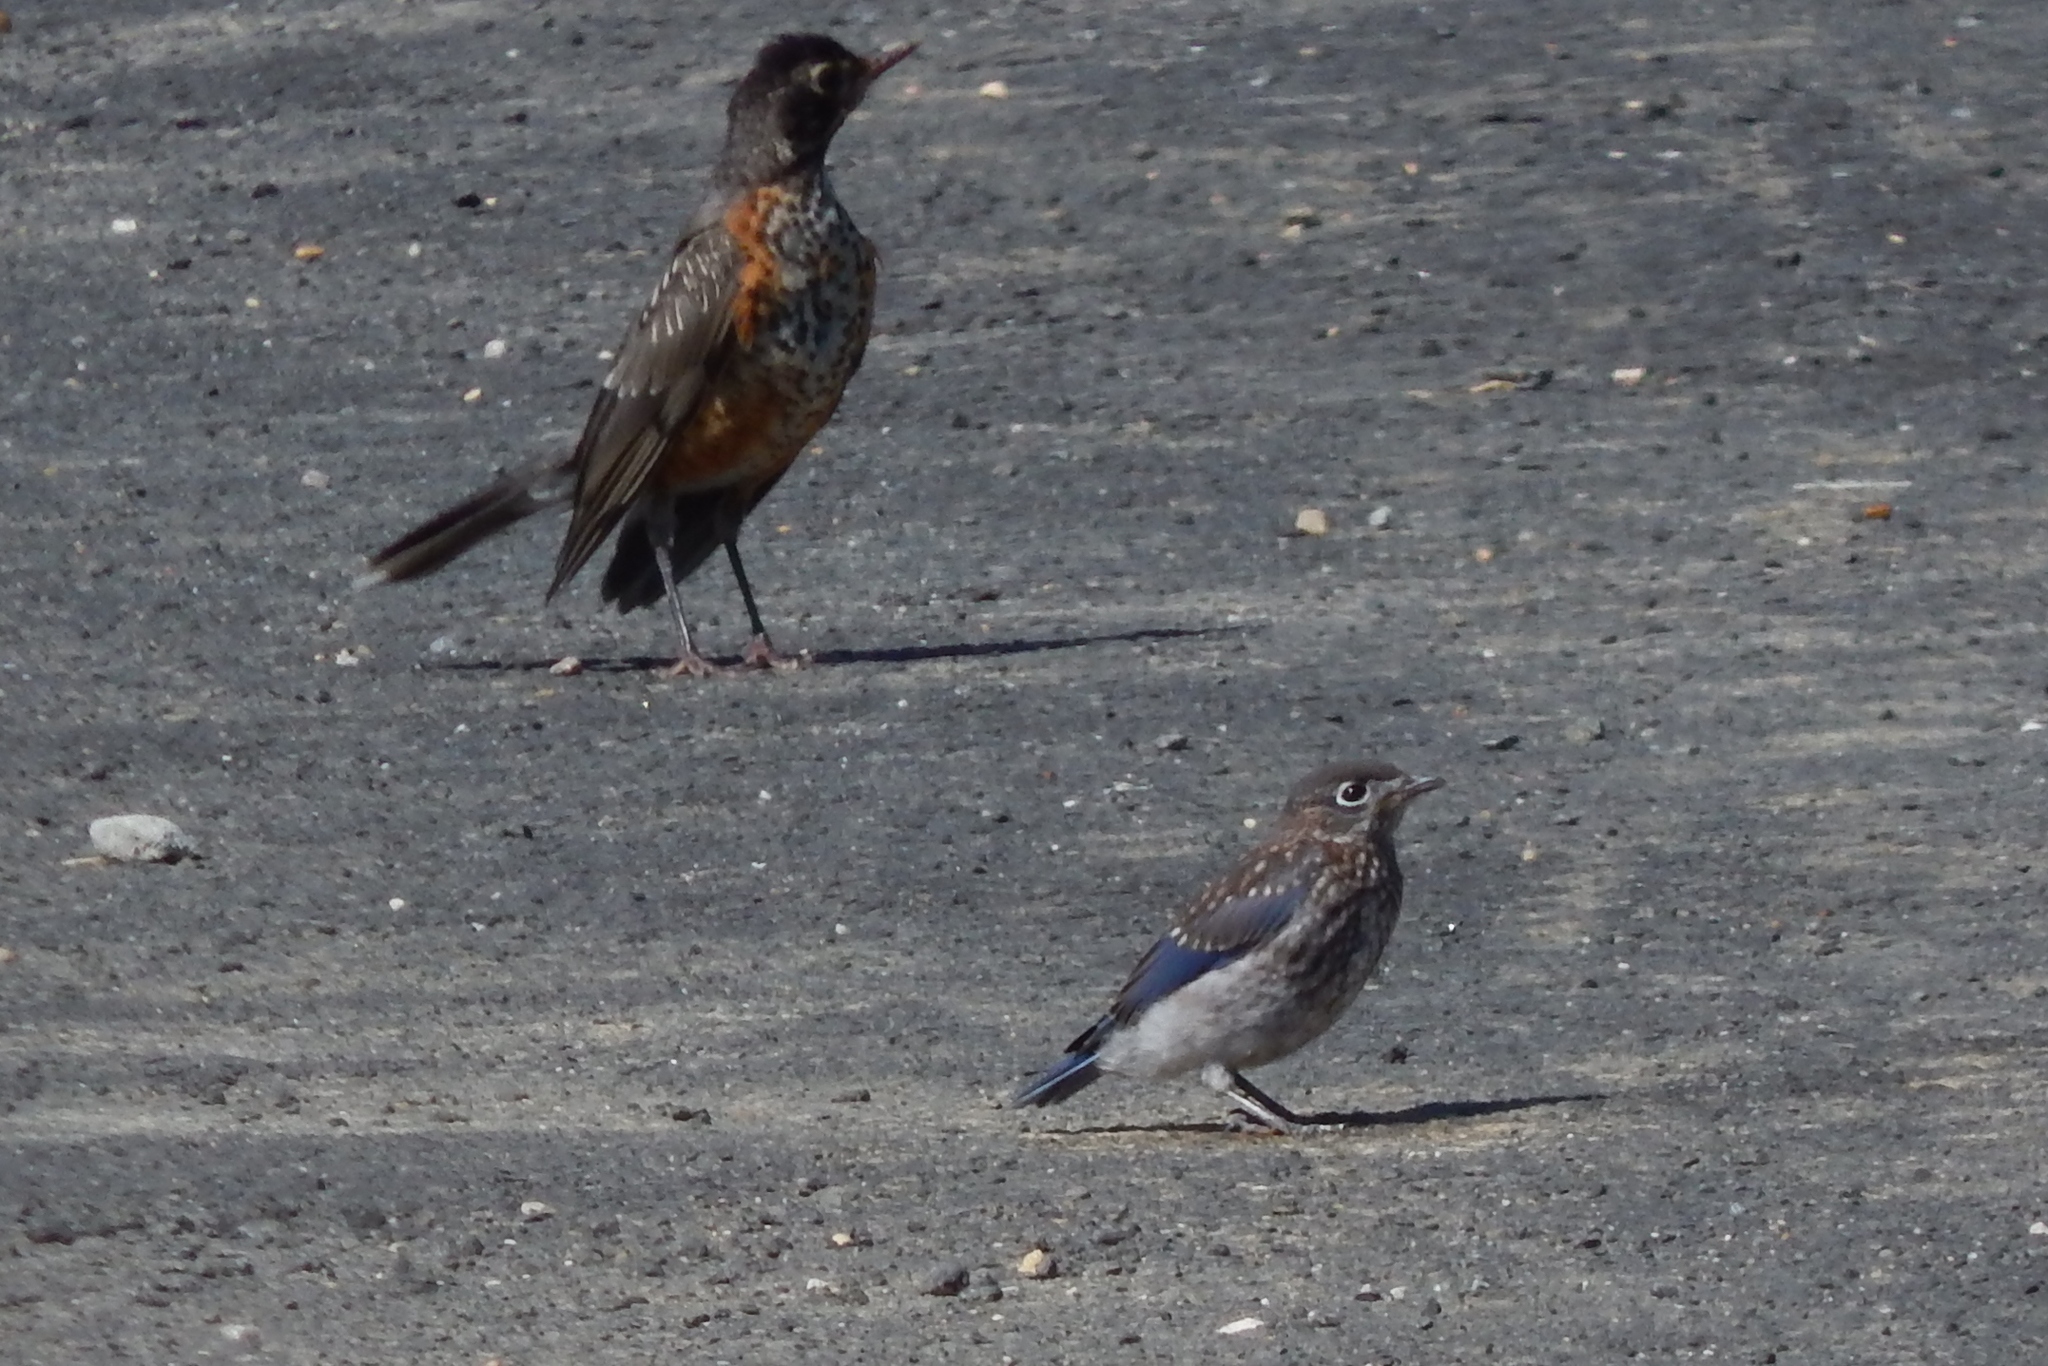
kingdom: Animalia
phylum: Chordata
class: Aves
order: Passeriformes
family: Turdidae
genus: Sialia
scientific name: Sialia sialis
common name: Eastern bluebird
